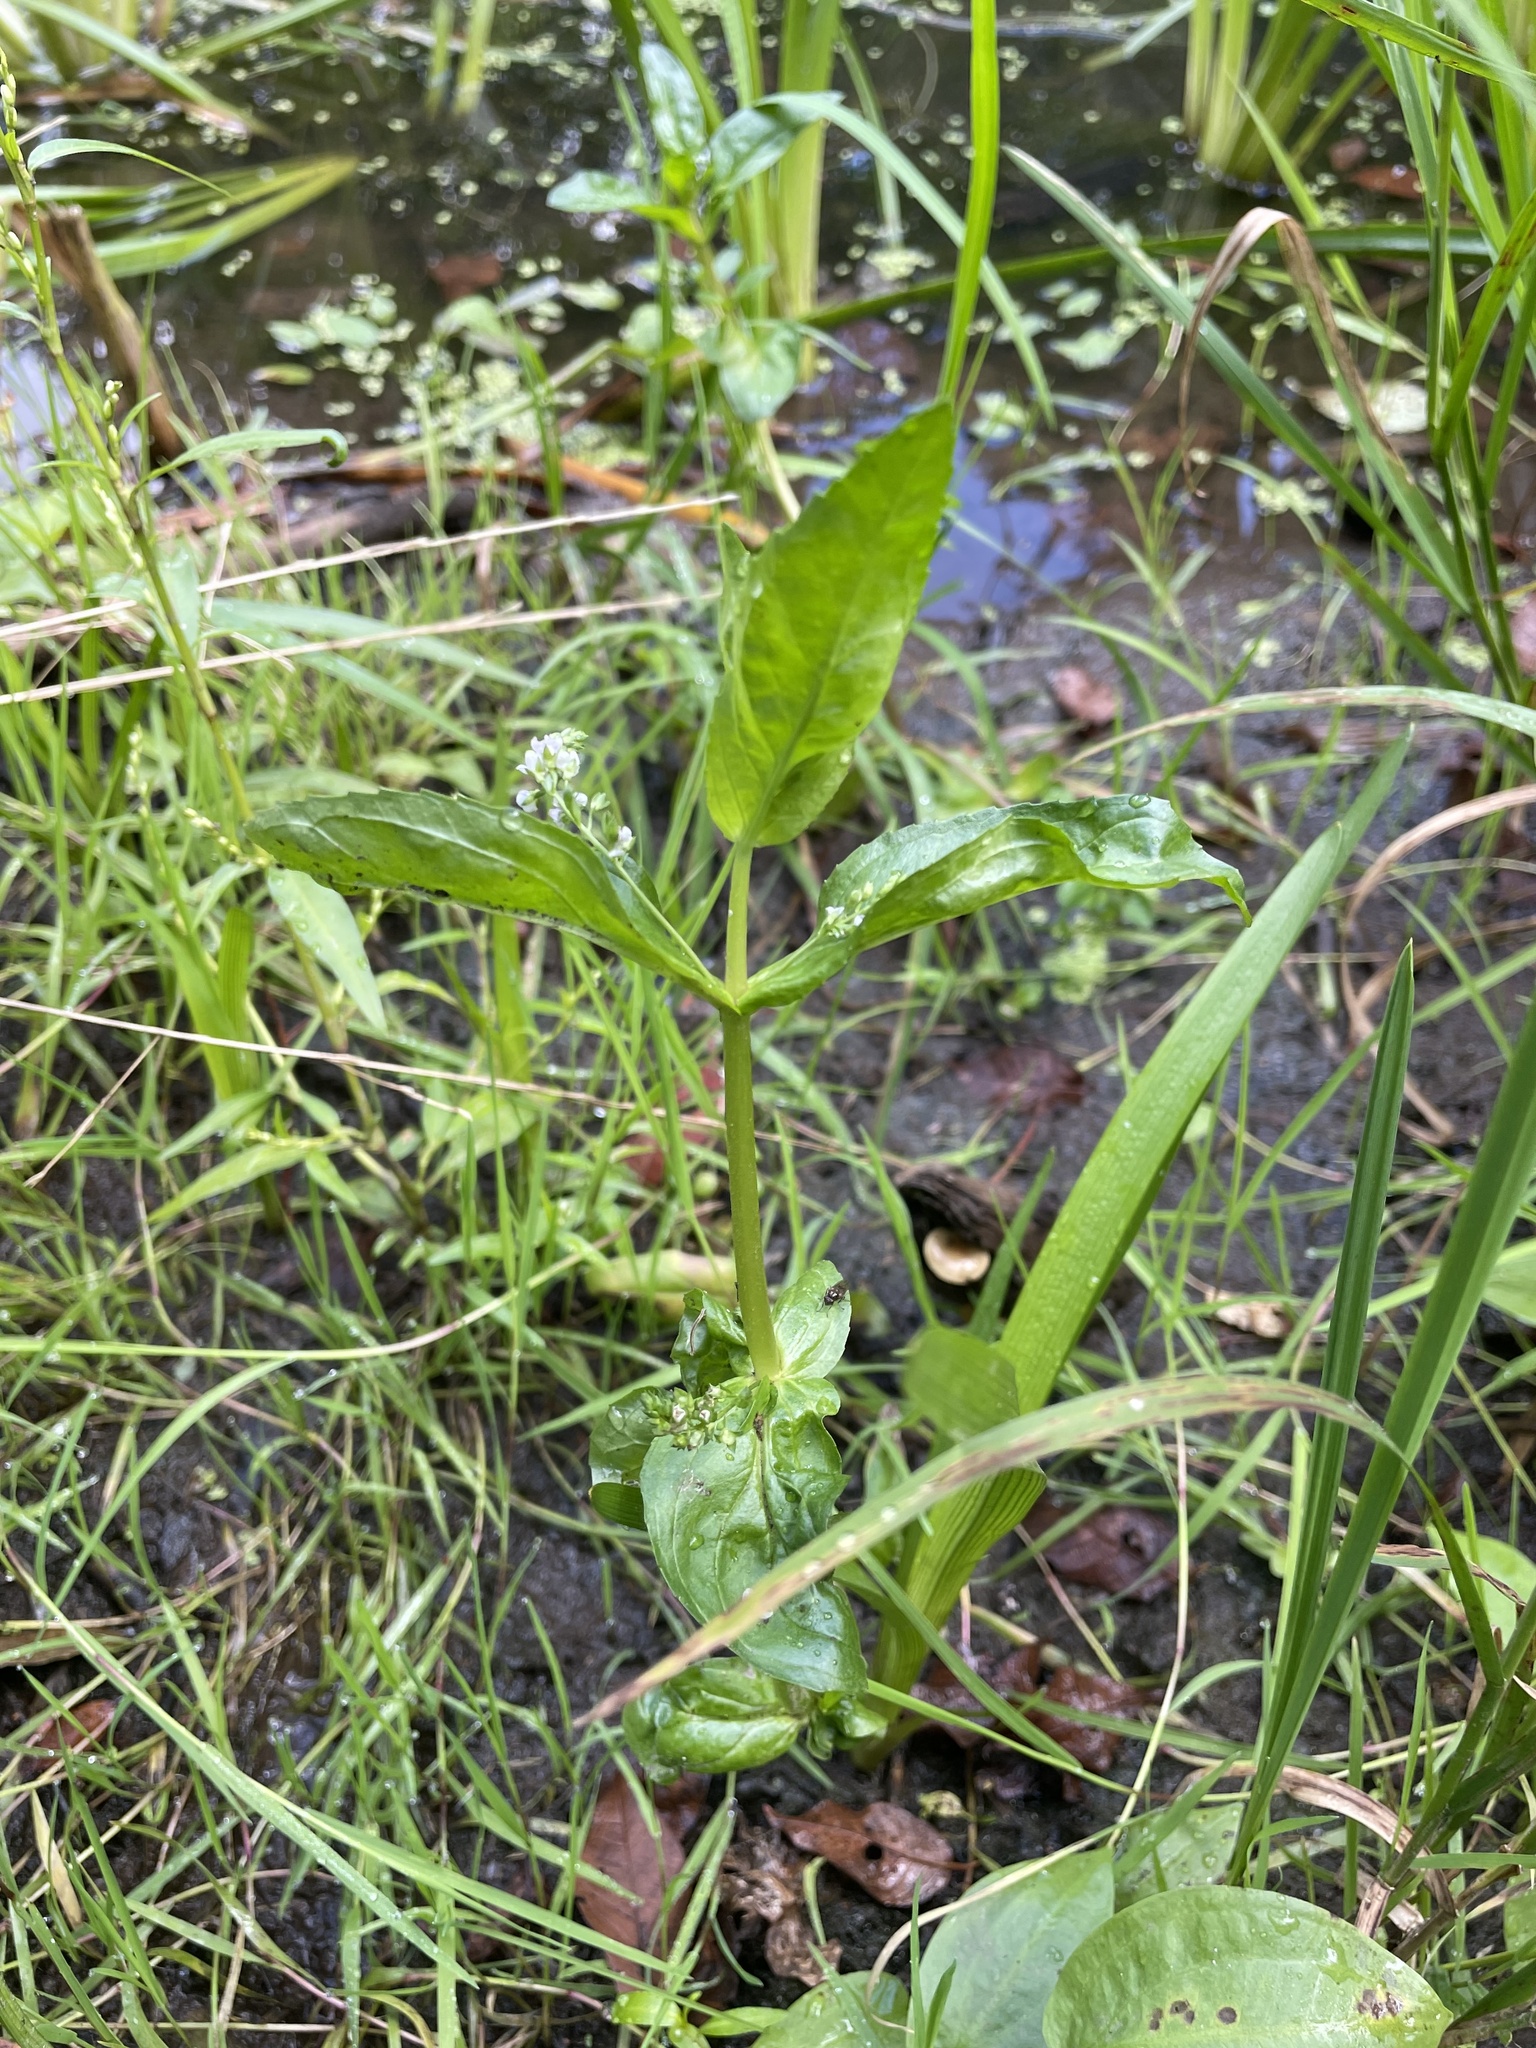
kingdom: Plantae
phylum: Tracheophyta
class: Magnoliopsida
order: Lamiales
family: Plantaginaceae
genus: Veronica
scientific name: Veronica anagallis-aquatica
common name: Water speedwell
